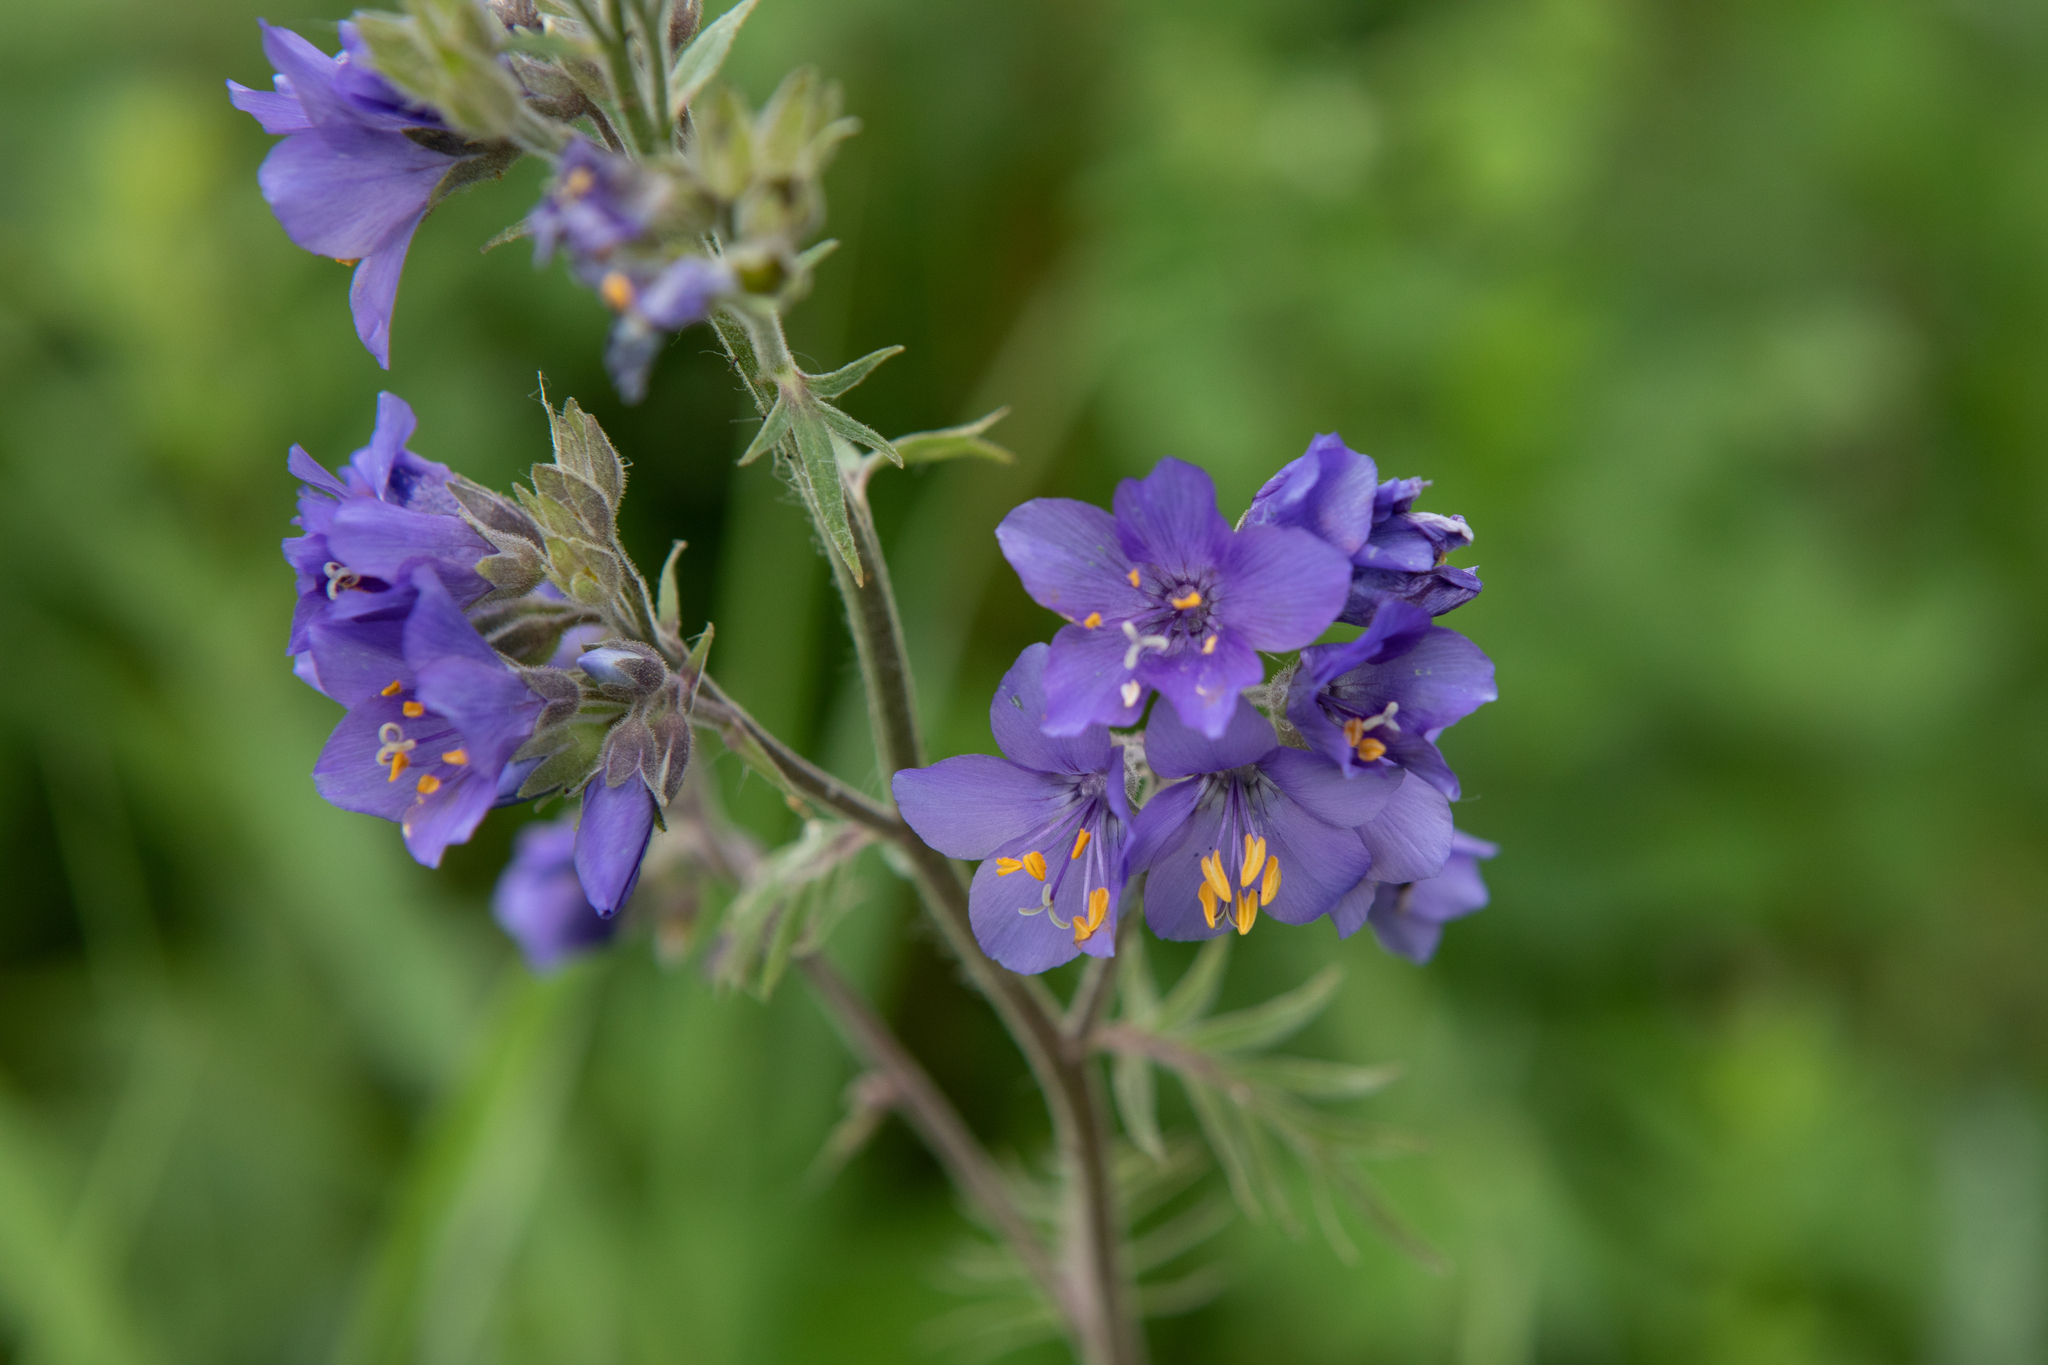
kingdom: Plantae
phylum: Tracheophyta
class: Magnoliopsida
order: Ericales
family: Polemoniaceae
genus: Polemonium
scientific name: Polemonium caeruleum
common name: Jacob's-ladder
